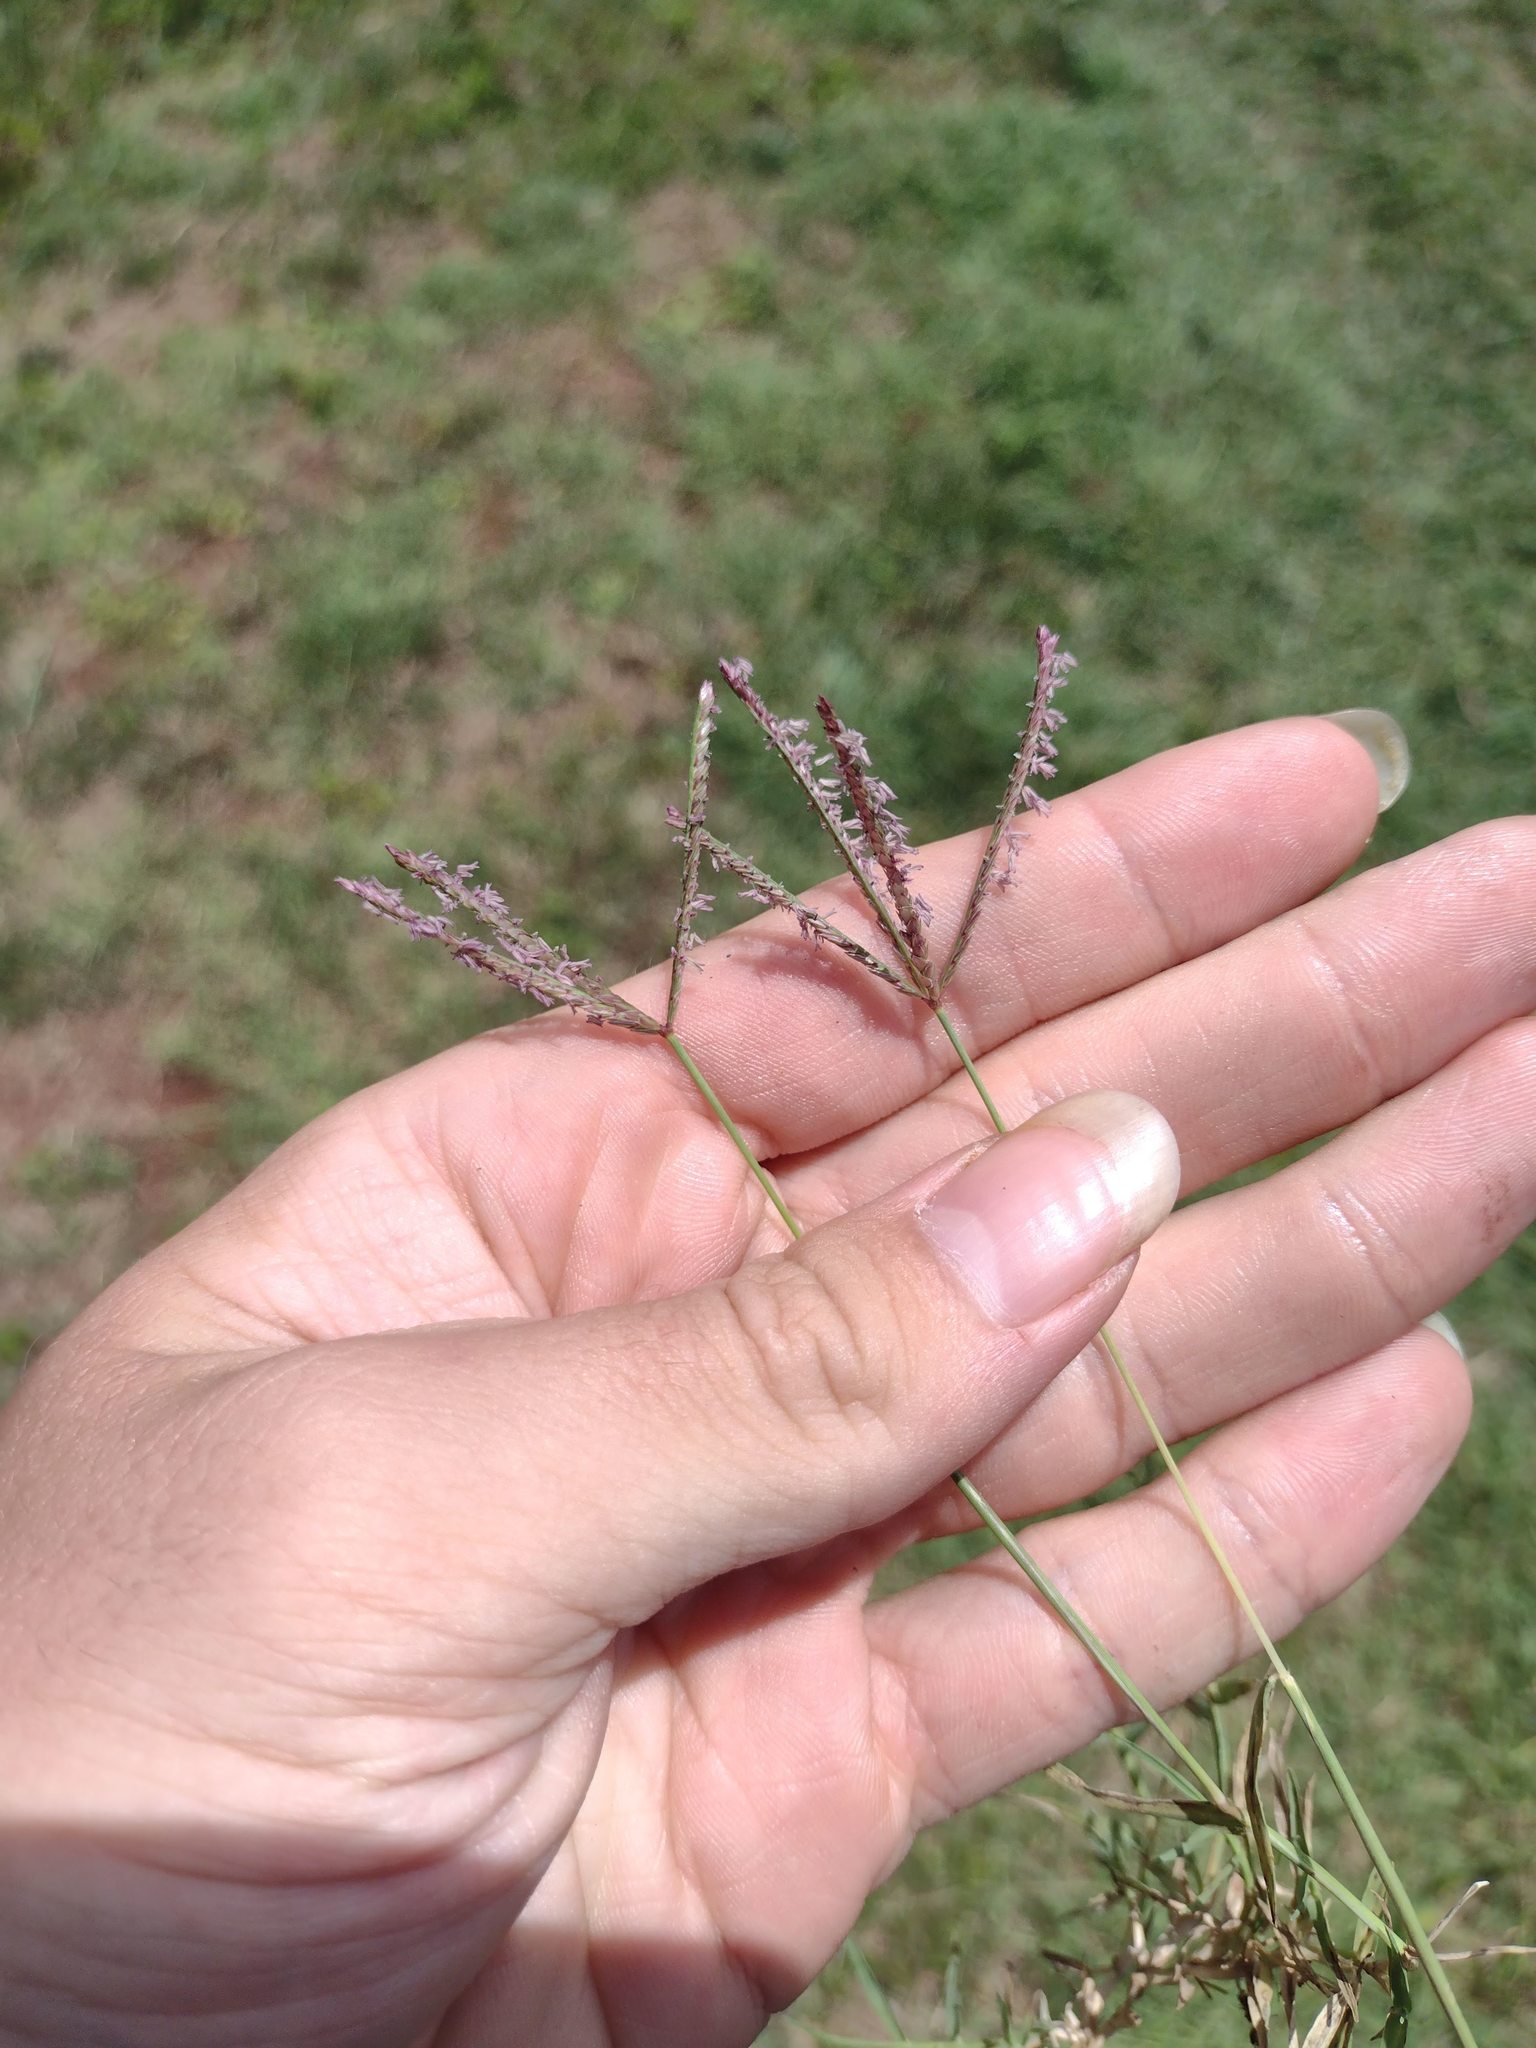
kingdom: Plantae
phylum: Tracheophyta
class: Liliopsida
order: Poales
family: Poaceae
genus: Cynodon
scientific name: Cynodon dactylon
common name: Bermuda grass
